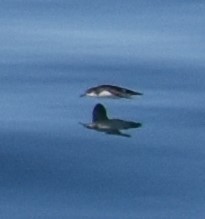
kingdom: Animalia
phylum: Chordata
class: Aves
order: Procellariiformes
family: Procellariidae
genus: Puffinus
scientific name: Puffinus puffinus
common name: Manx shearwater
